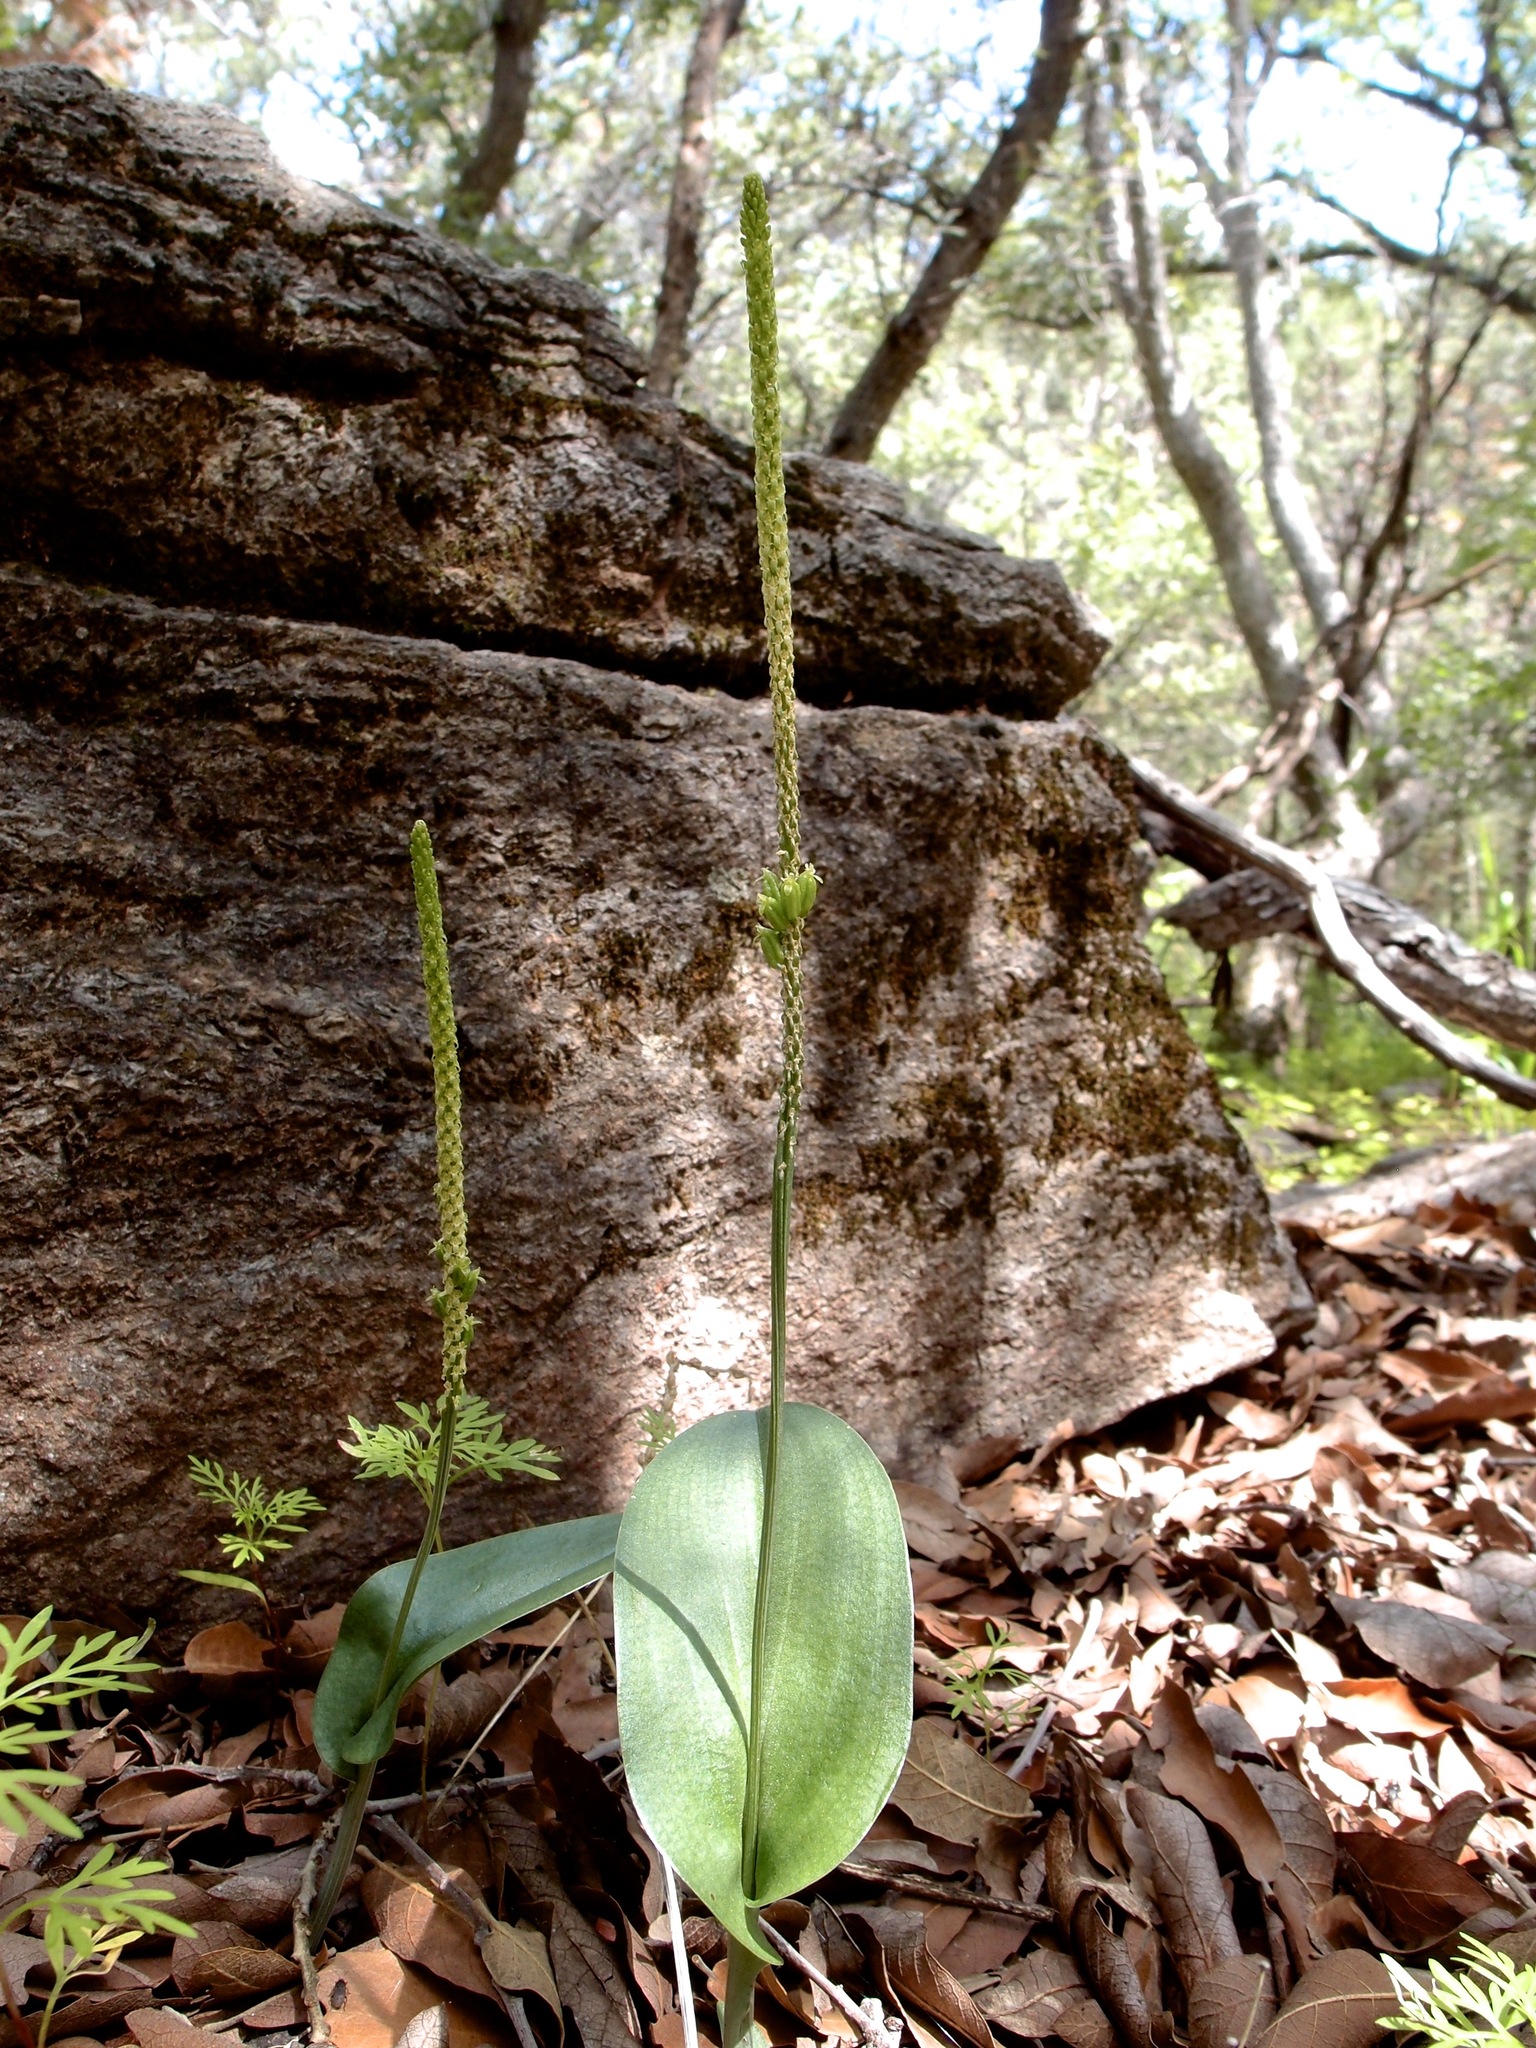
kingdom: Plantae
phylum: Tracheophyta
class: Liliopsida
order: Asparagales
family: Orchidaceae
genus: Malaxis
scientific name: Malaxis macrostachya
